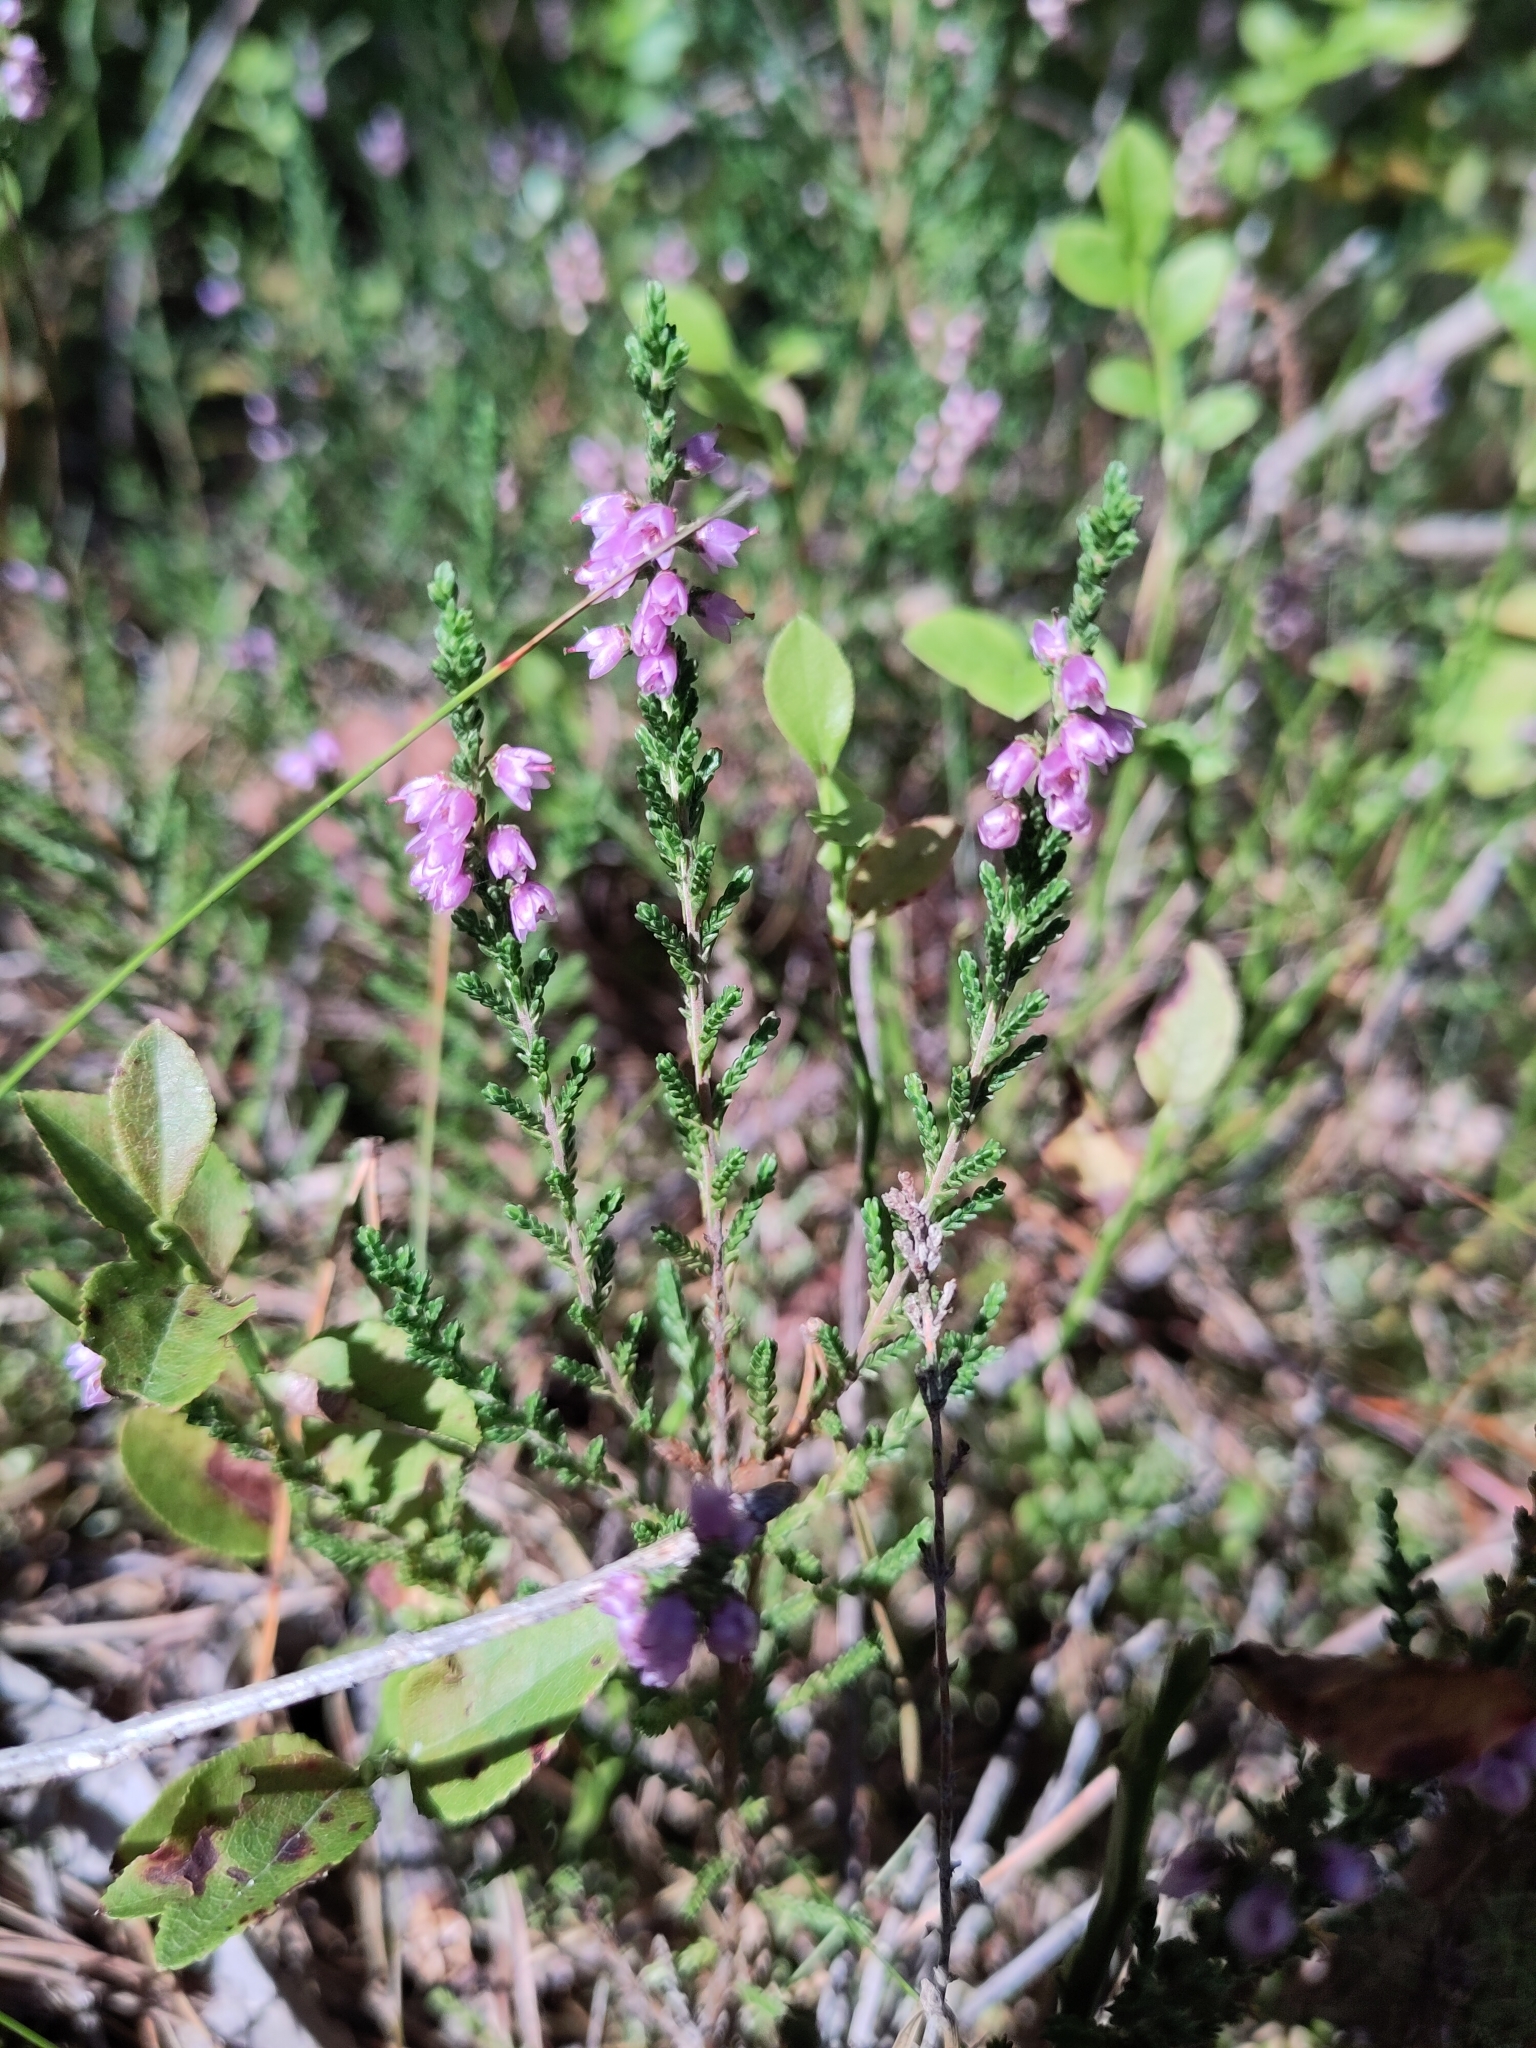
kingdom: Plantae
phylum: Tracheophyta
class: Magnoliopsida
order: Ericales
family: Ericaceae
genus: Calluna
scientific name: Calluna vulgaris
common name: Heather
